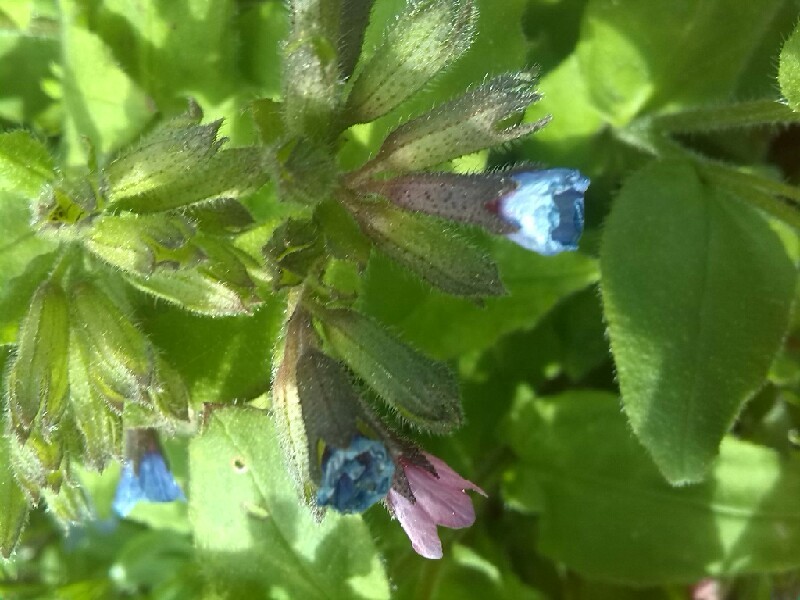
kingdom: Plantae
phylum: Tracheophyta
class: Magnoliopsida
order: Boraginales
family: Boraginaceae
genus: Pulmonaria
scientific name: Pulmonaria obscura
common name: Suffolk lungwort
